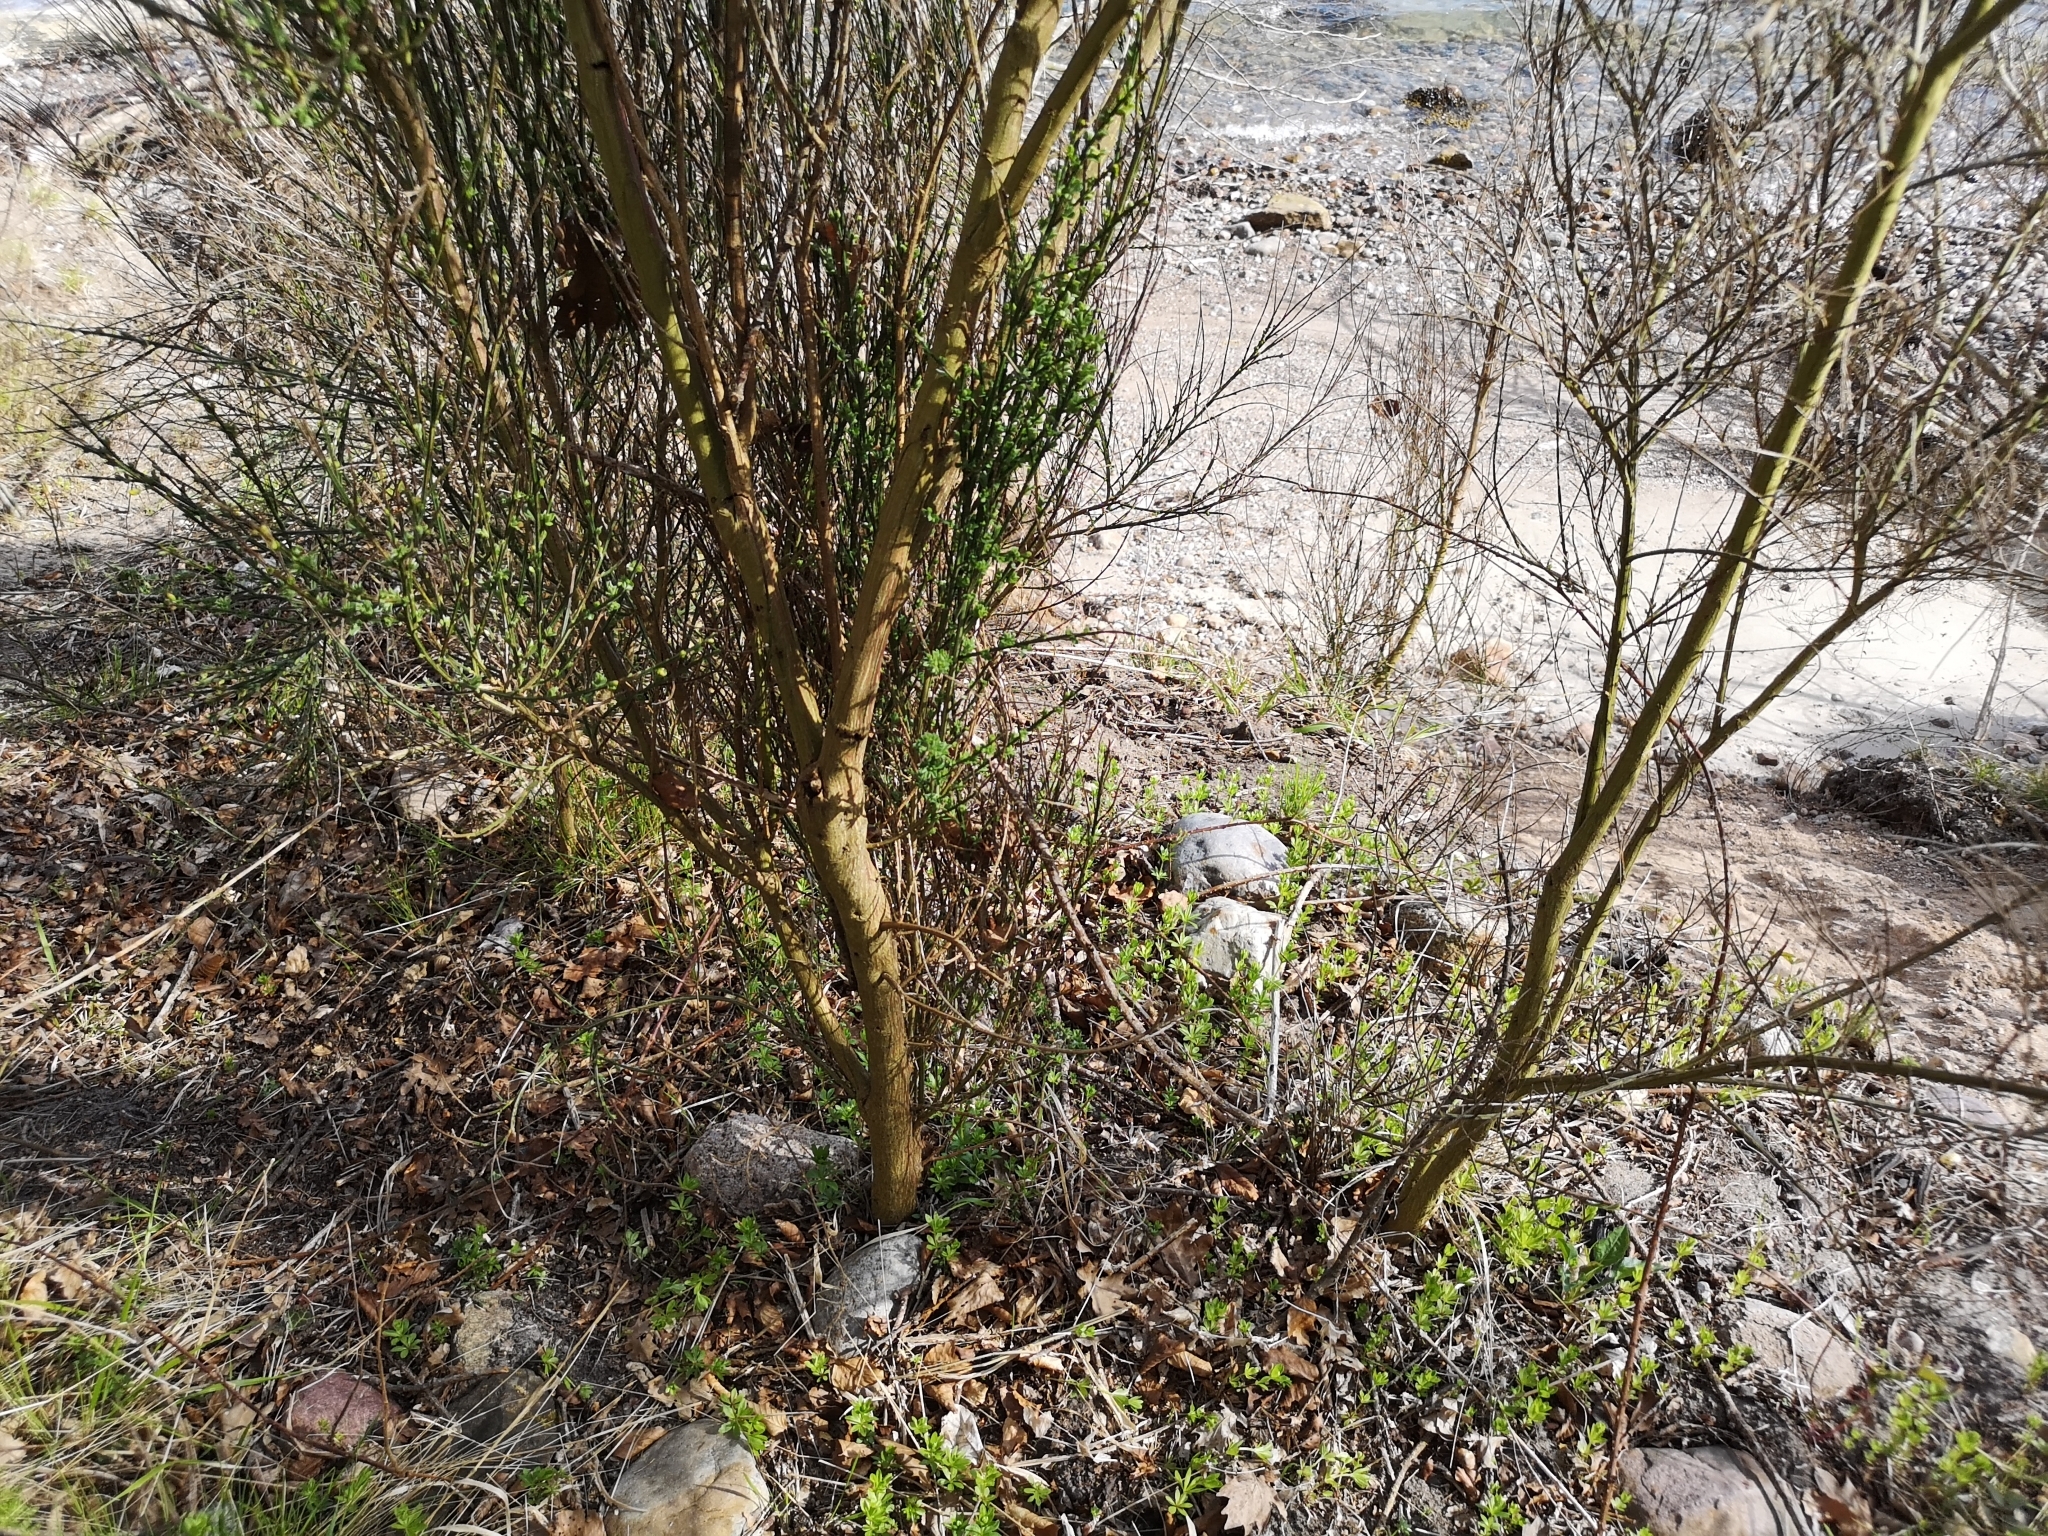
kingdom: Plantae
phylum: Tracheophyta
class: Magnoliopsida
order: Fabales
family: Fabaceae
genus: Cytisus
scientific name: Cytisus scoparius
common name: Scotch broom
